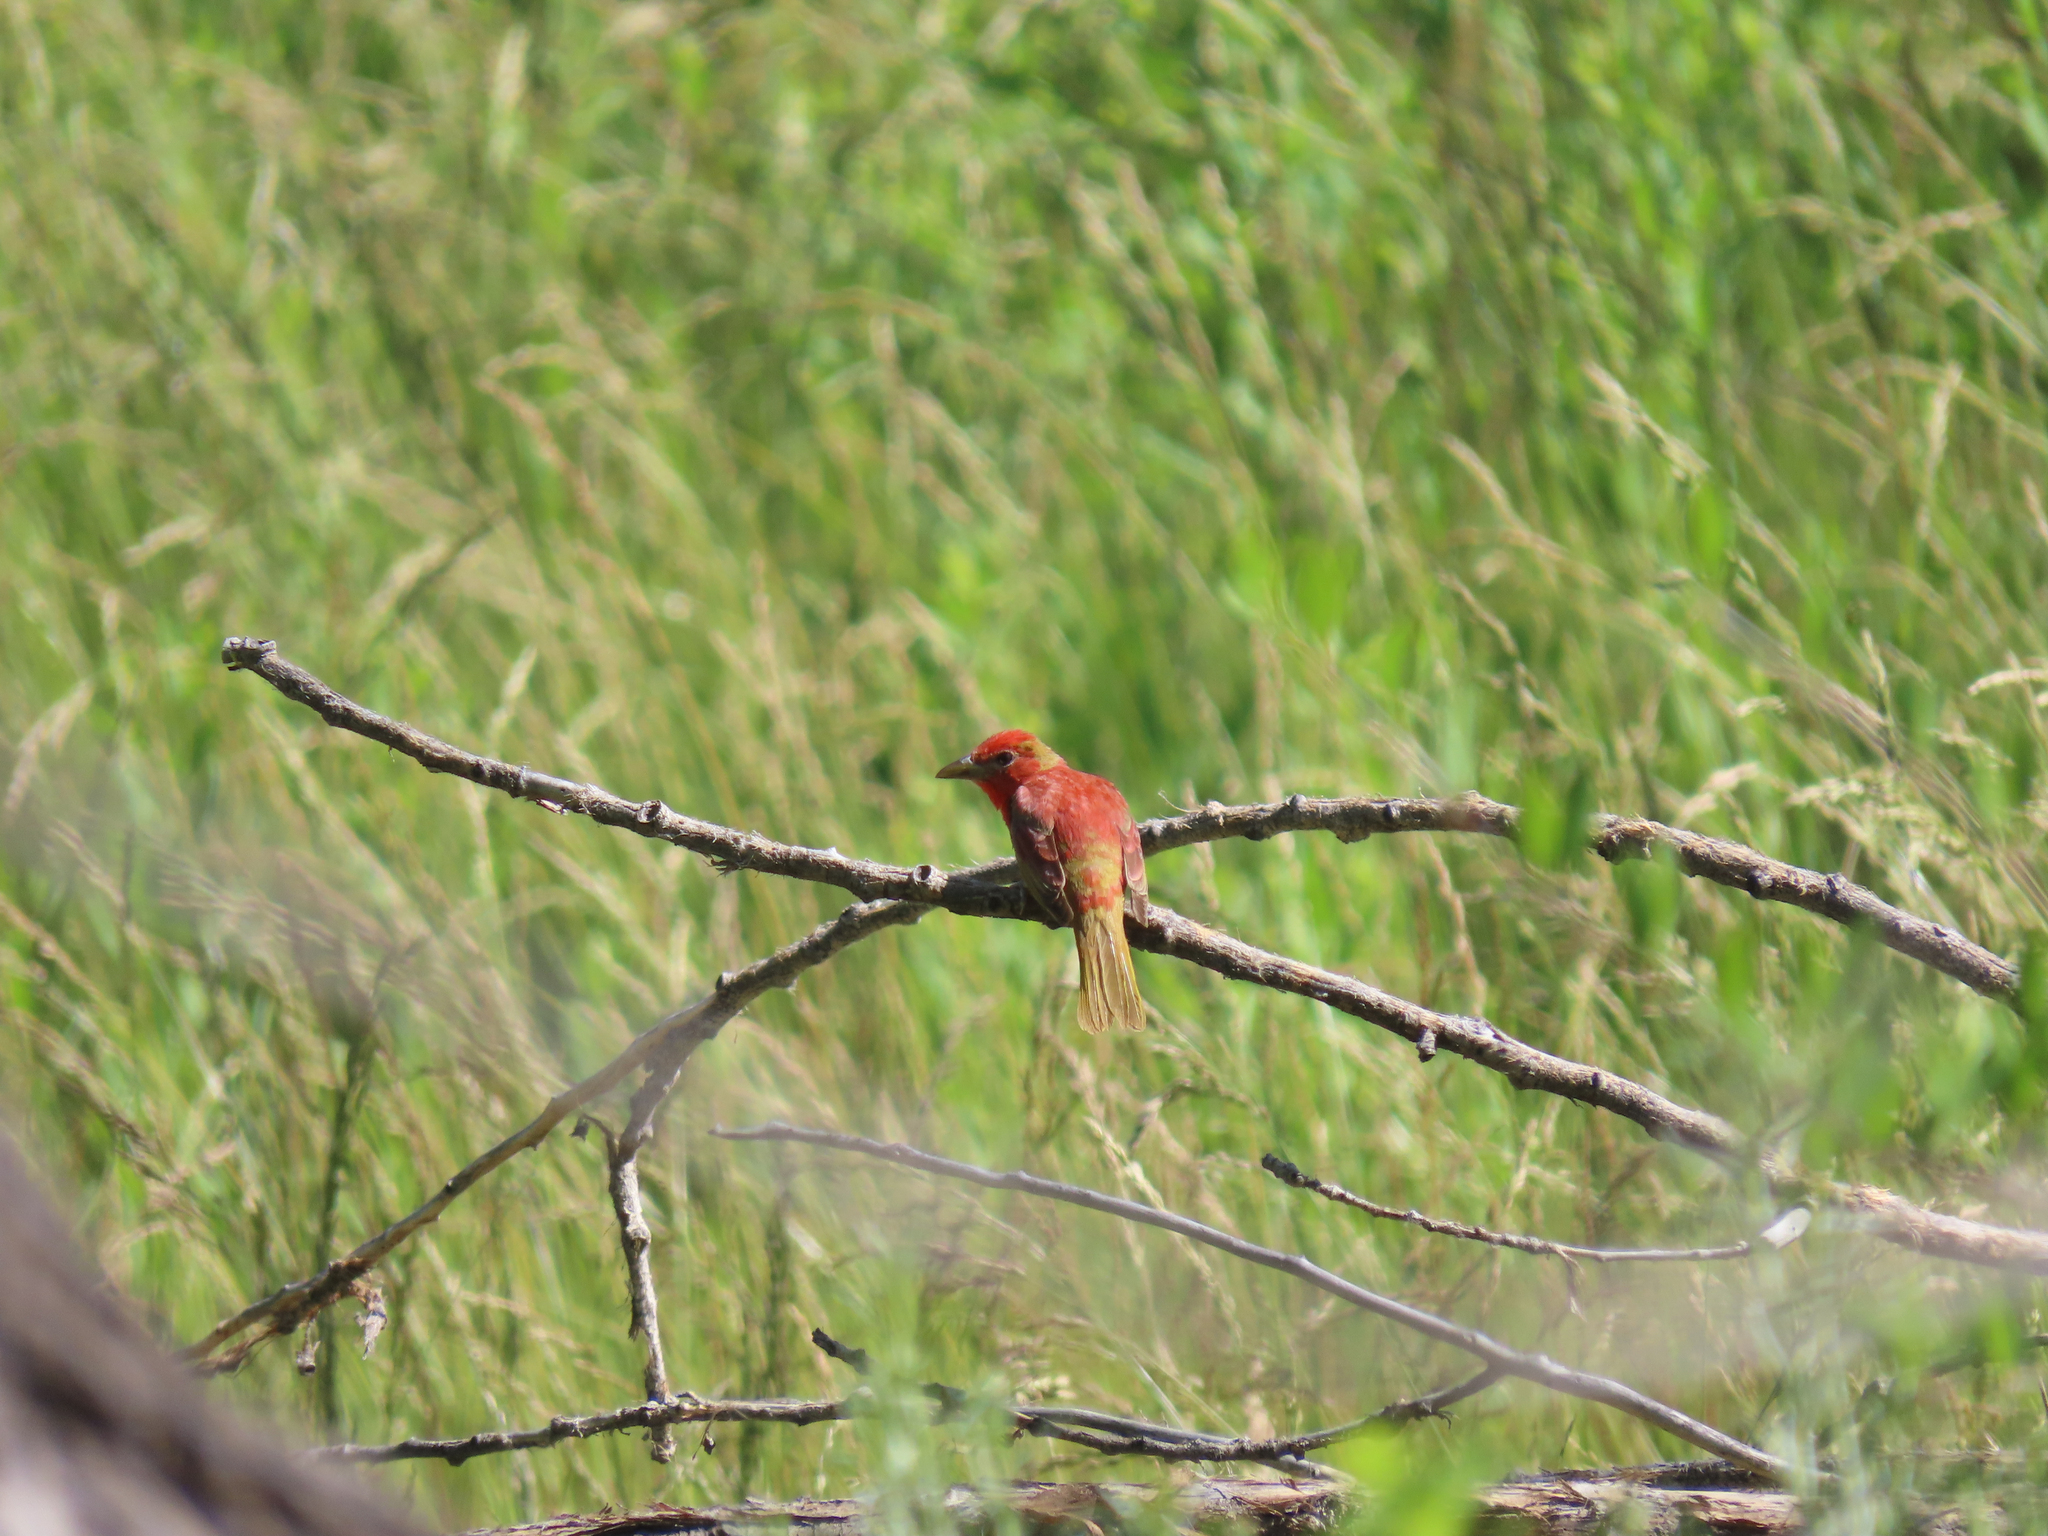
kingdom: Animalia
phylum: Chordata
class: Aves
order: Passeriformes
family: Cardinalidae
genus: Piranga
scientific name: Piranga rubra
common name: Summer tanager
